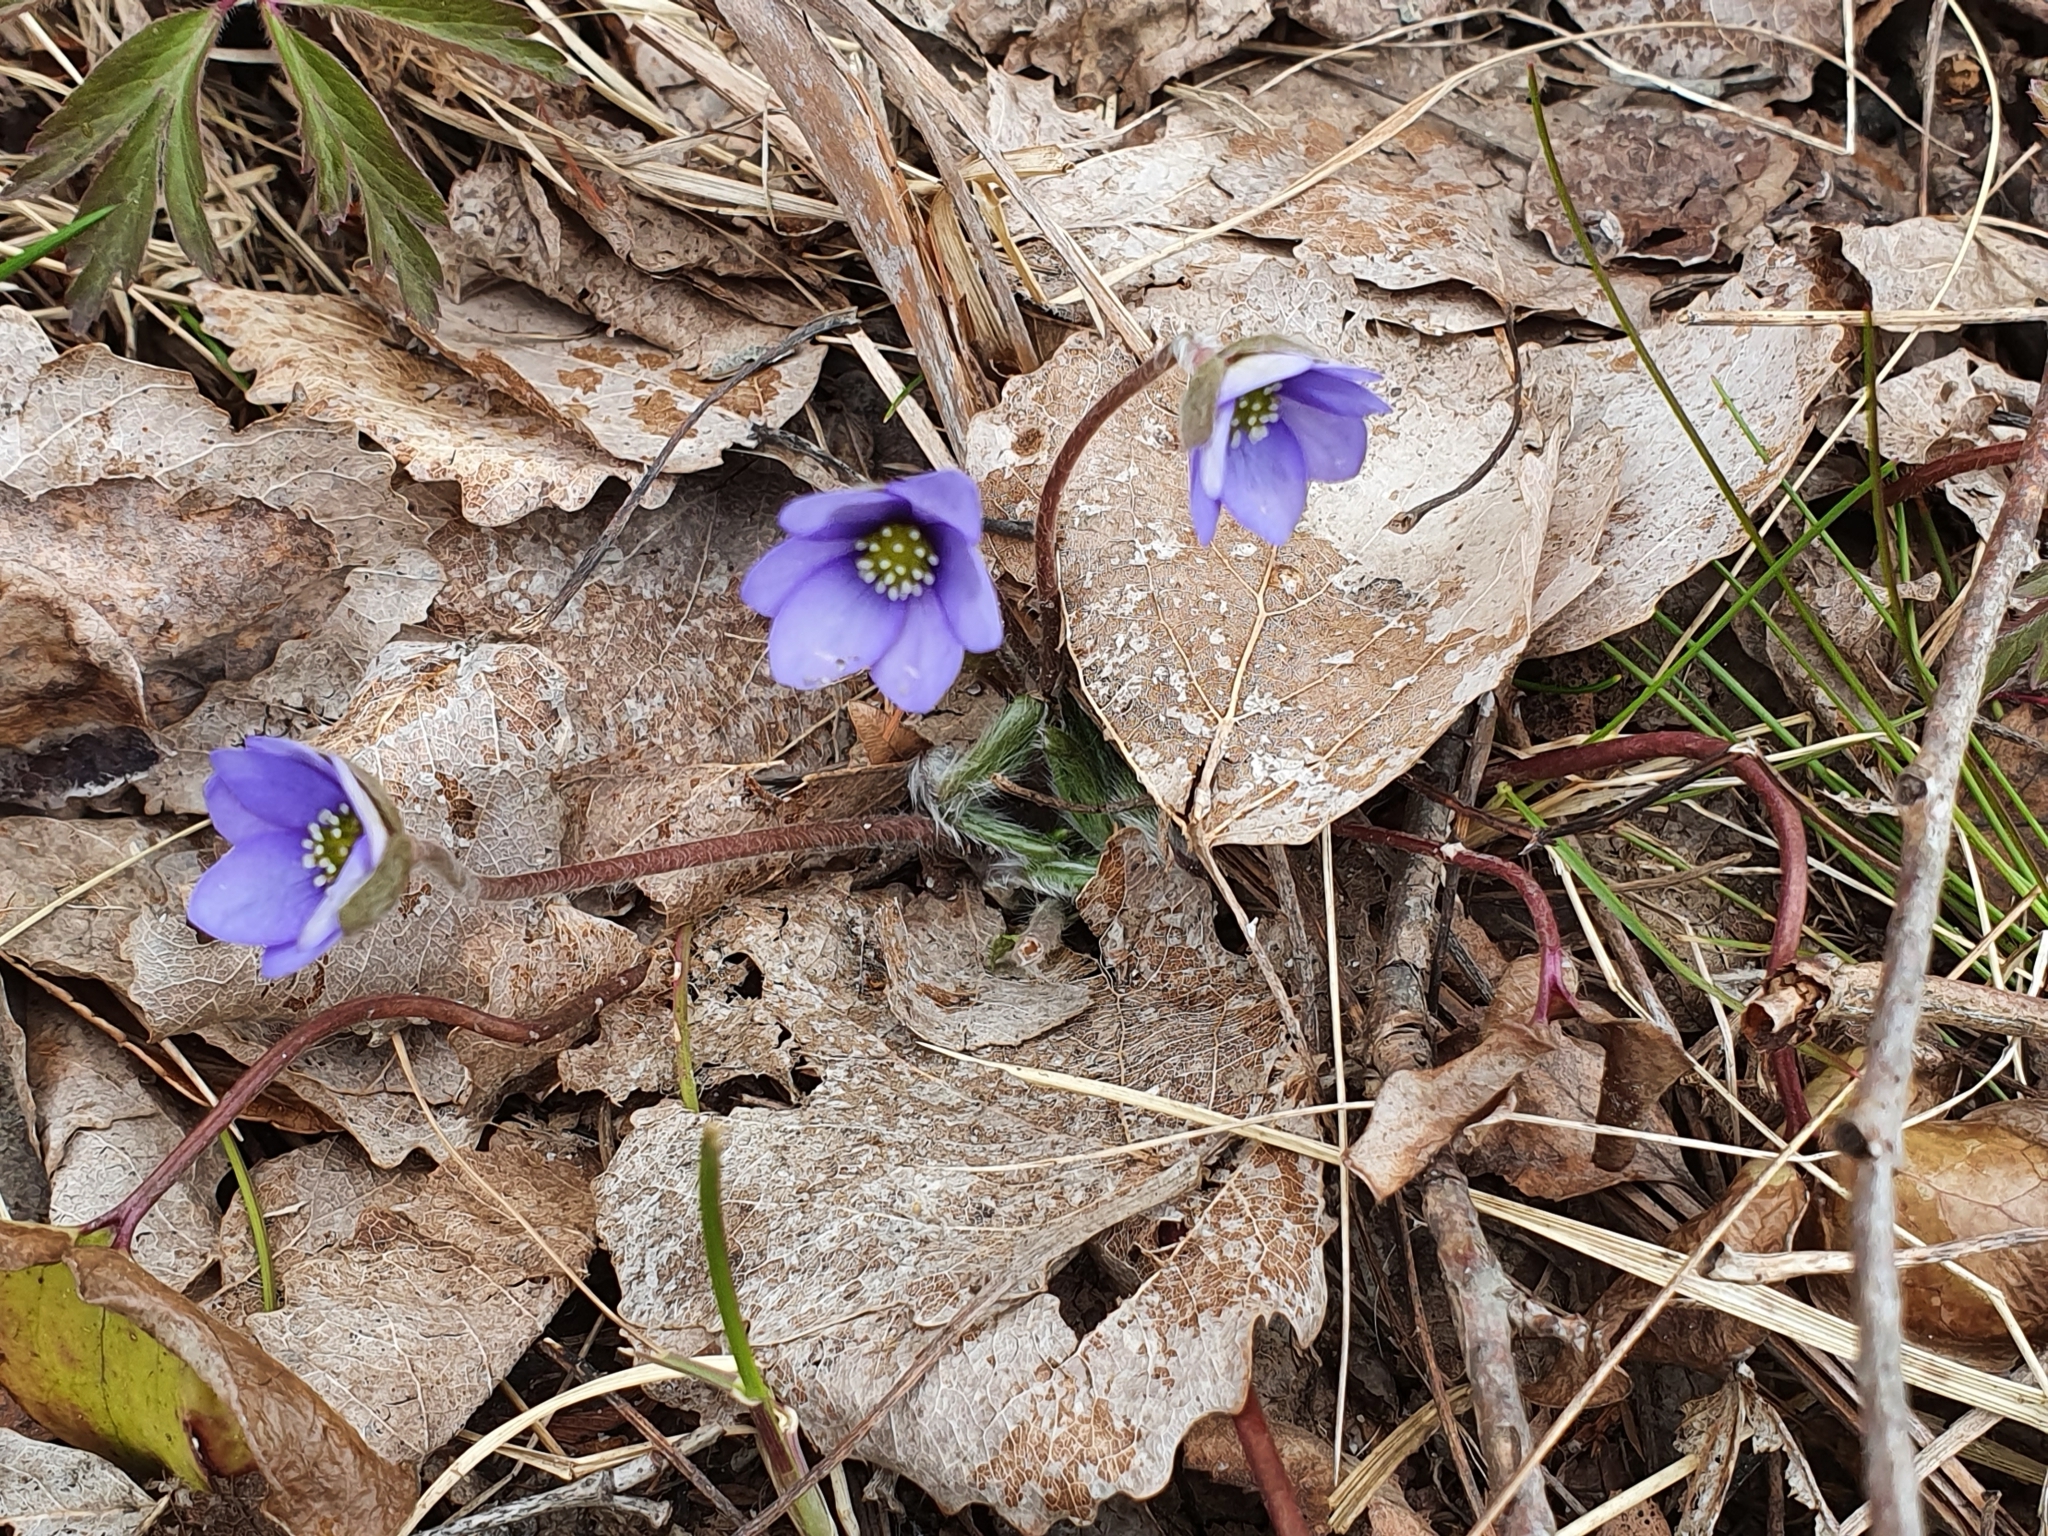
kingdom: Plantae
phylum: Tracheophyta
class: Magnoliopsida
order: Ranunculales
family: Ranunculaceae
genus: Hepatica
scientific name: Hepatica nobilis
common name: Liverleaf
